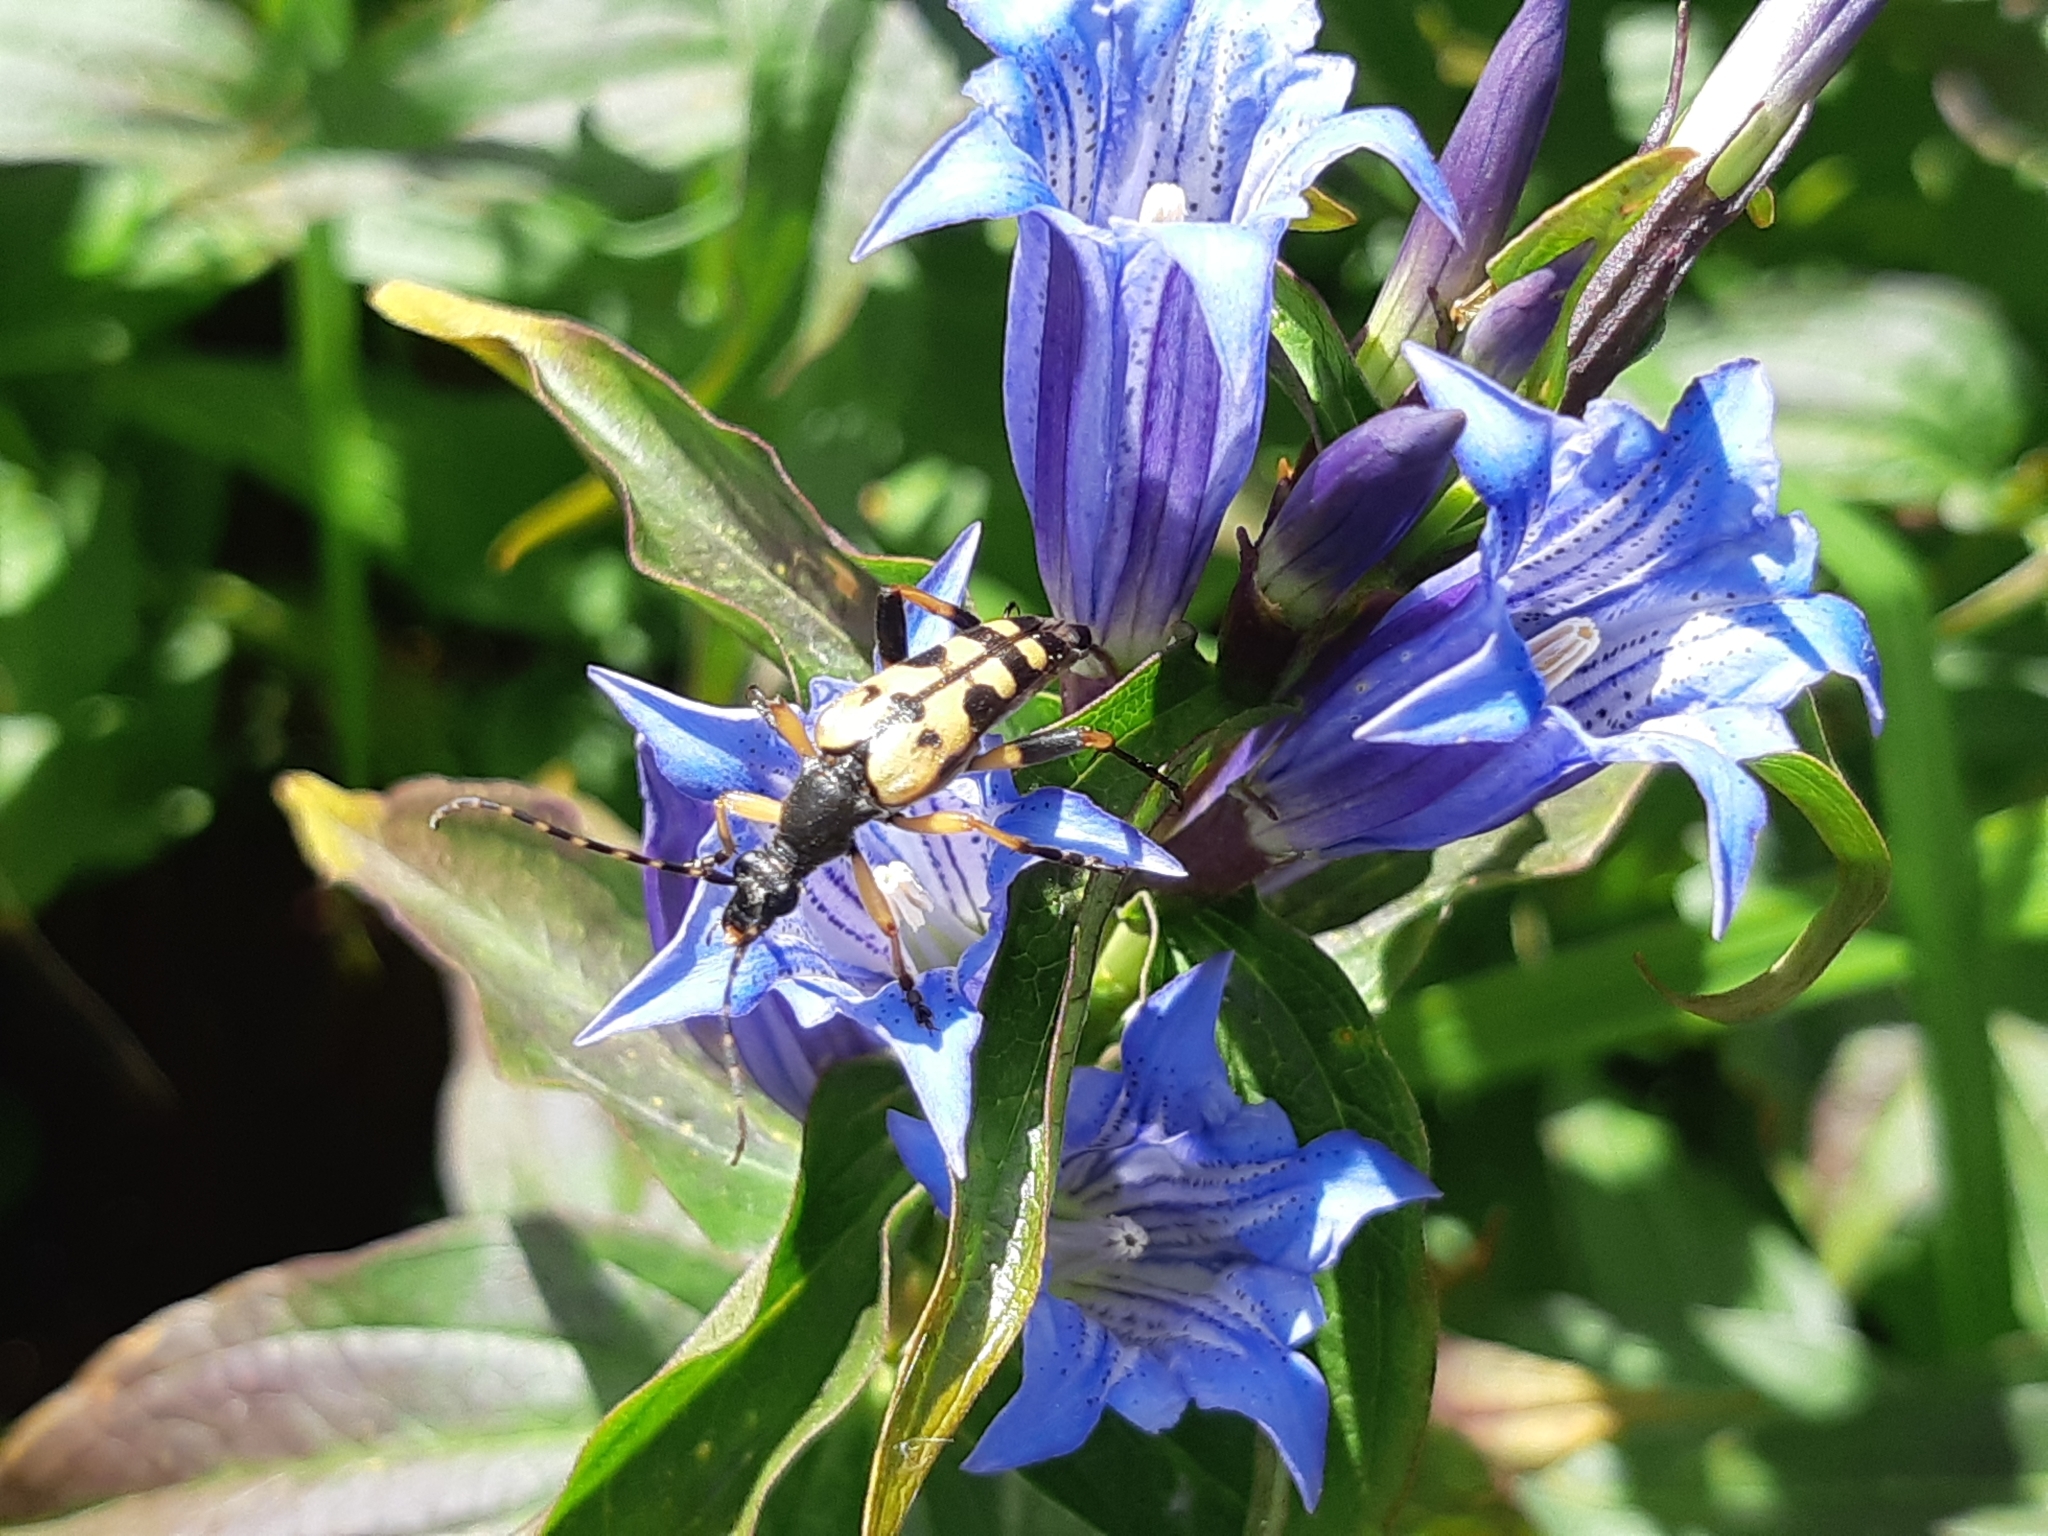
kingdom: Animalia
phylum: Arthropoda
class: Insecta
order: Coleoptera
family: Cerambycidae
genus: Rutpela
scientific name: Rutpela maculata
